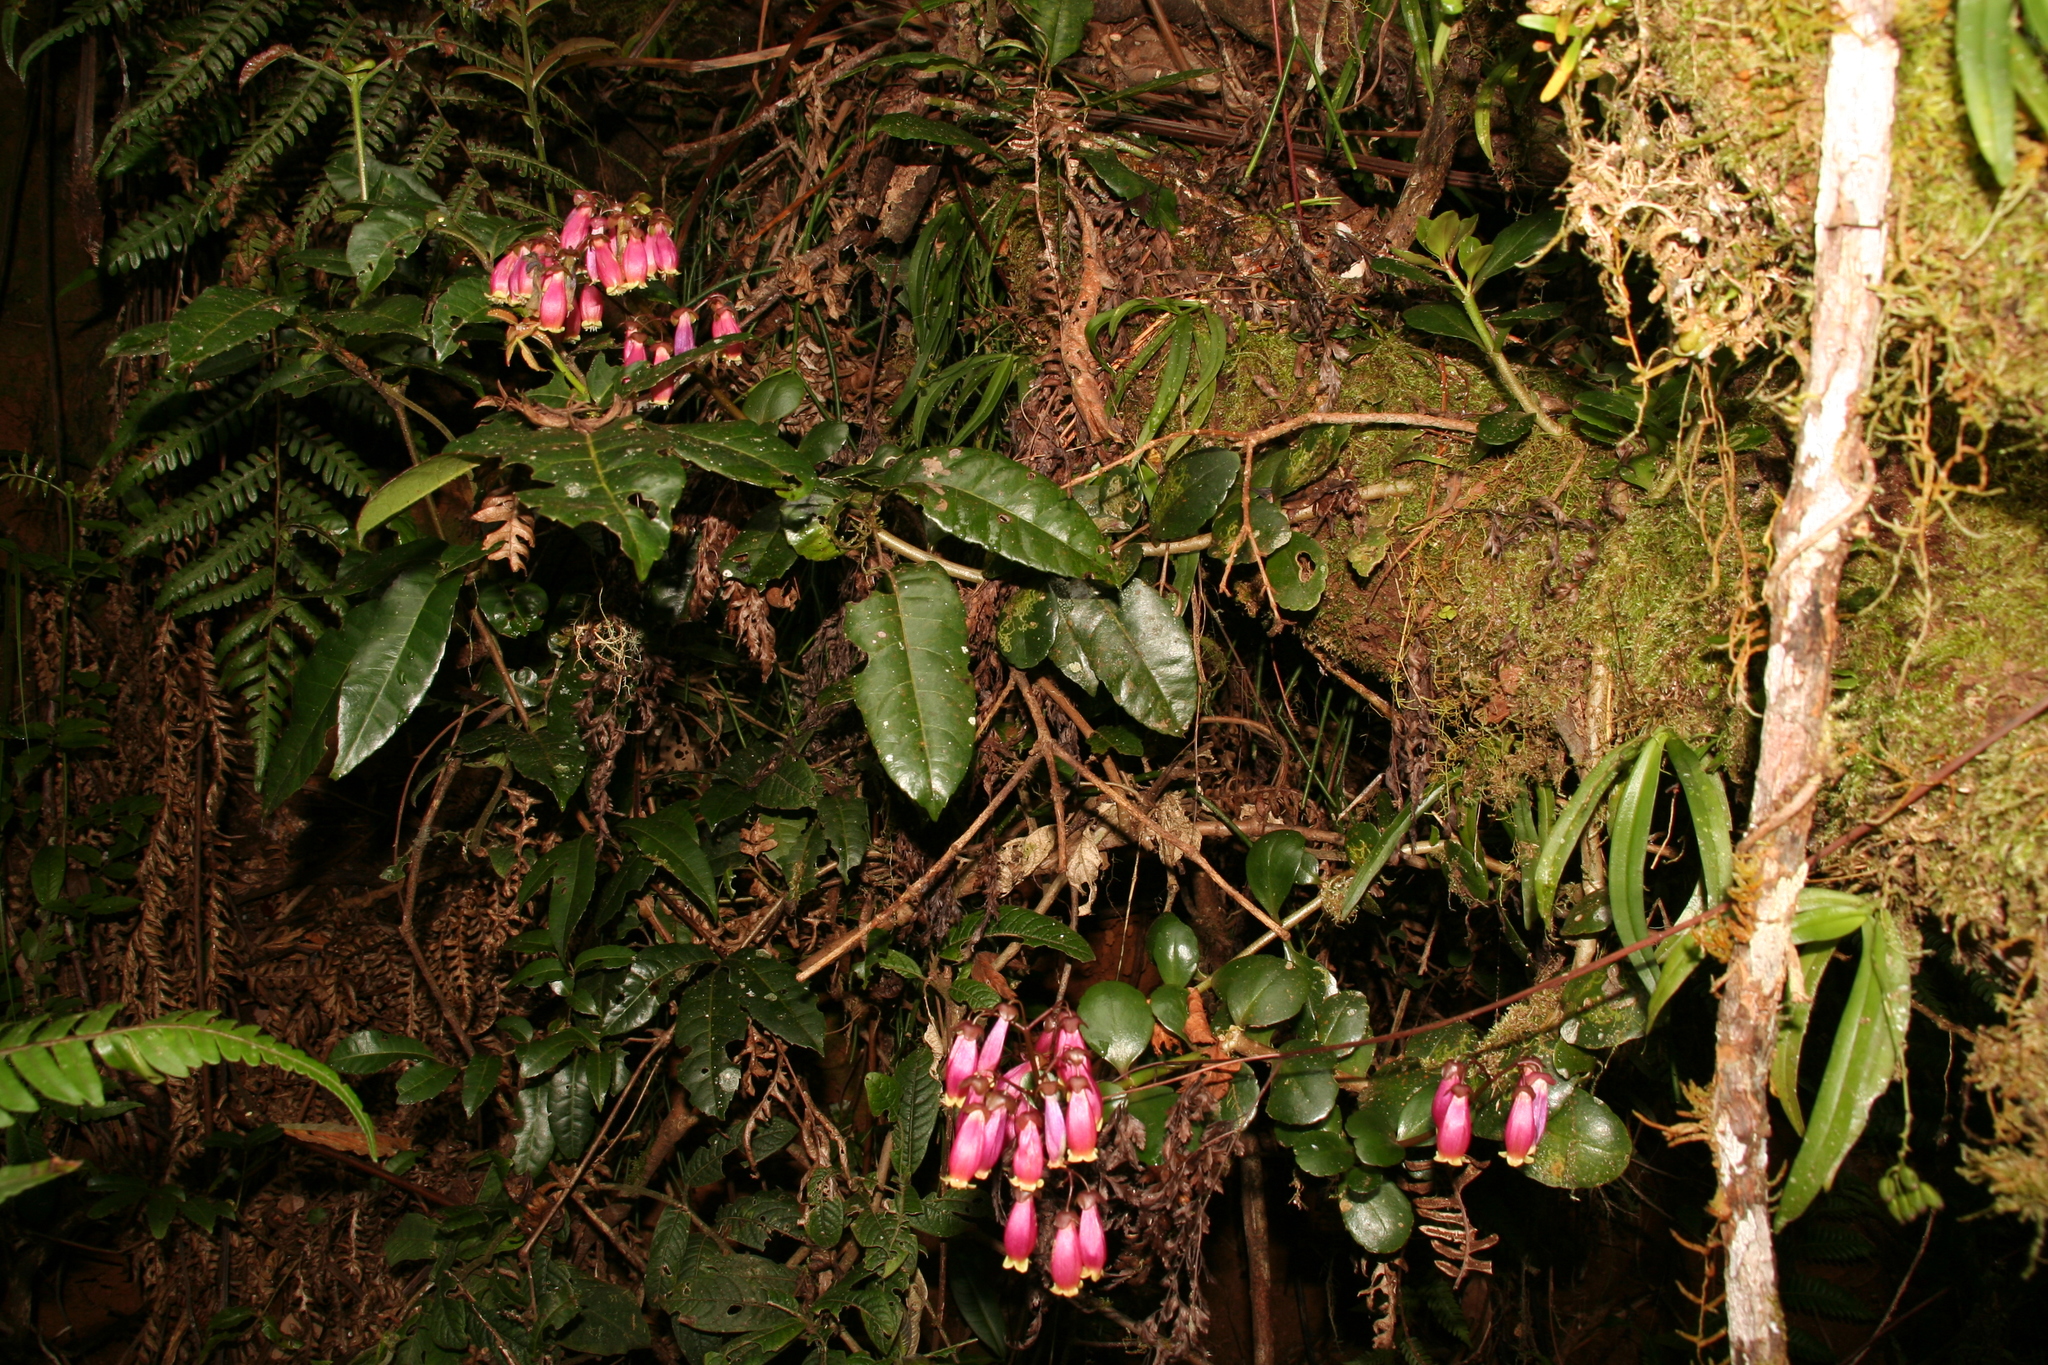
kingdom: Plantae
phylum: Tracheophyta
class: Magnoliopsida
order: Saxifragales
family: Crassulaceae
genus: Kalanchoe
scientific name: Kalanchoe porphyrocalyx
